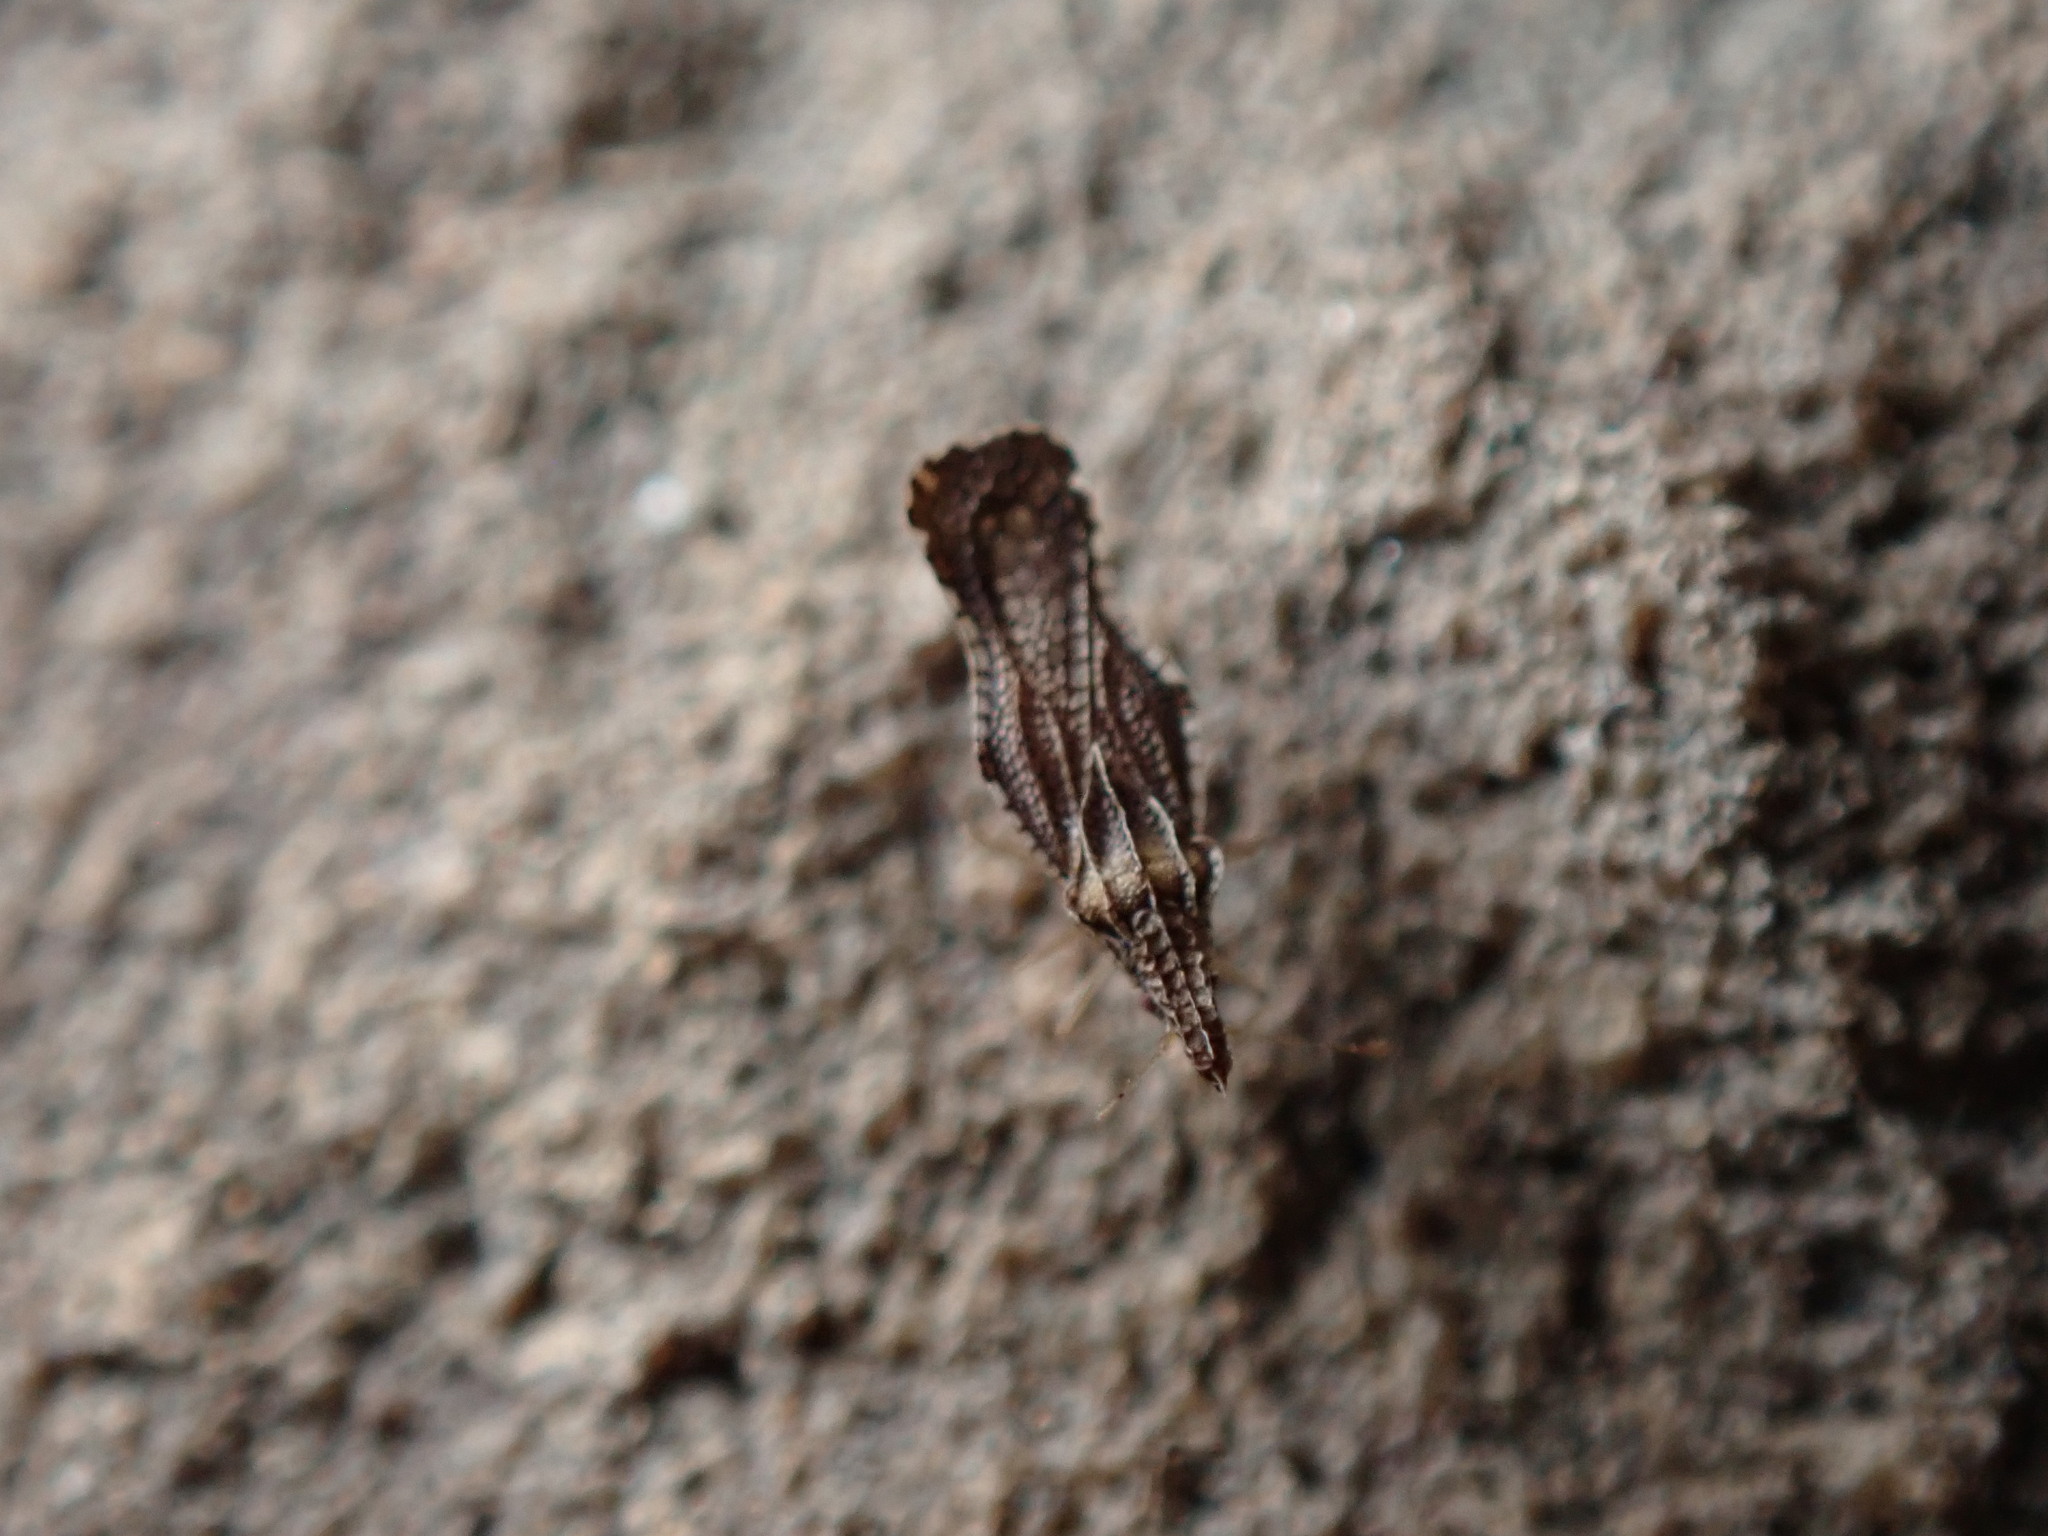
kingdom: Animalia
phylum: Arthropoda
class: Insecta
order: Hemiptera
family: Tingidae
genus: Corythaica
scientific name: Corythaica carinata
